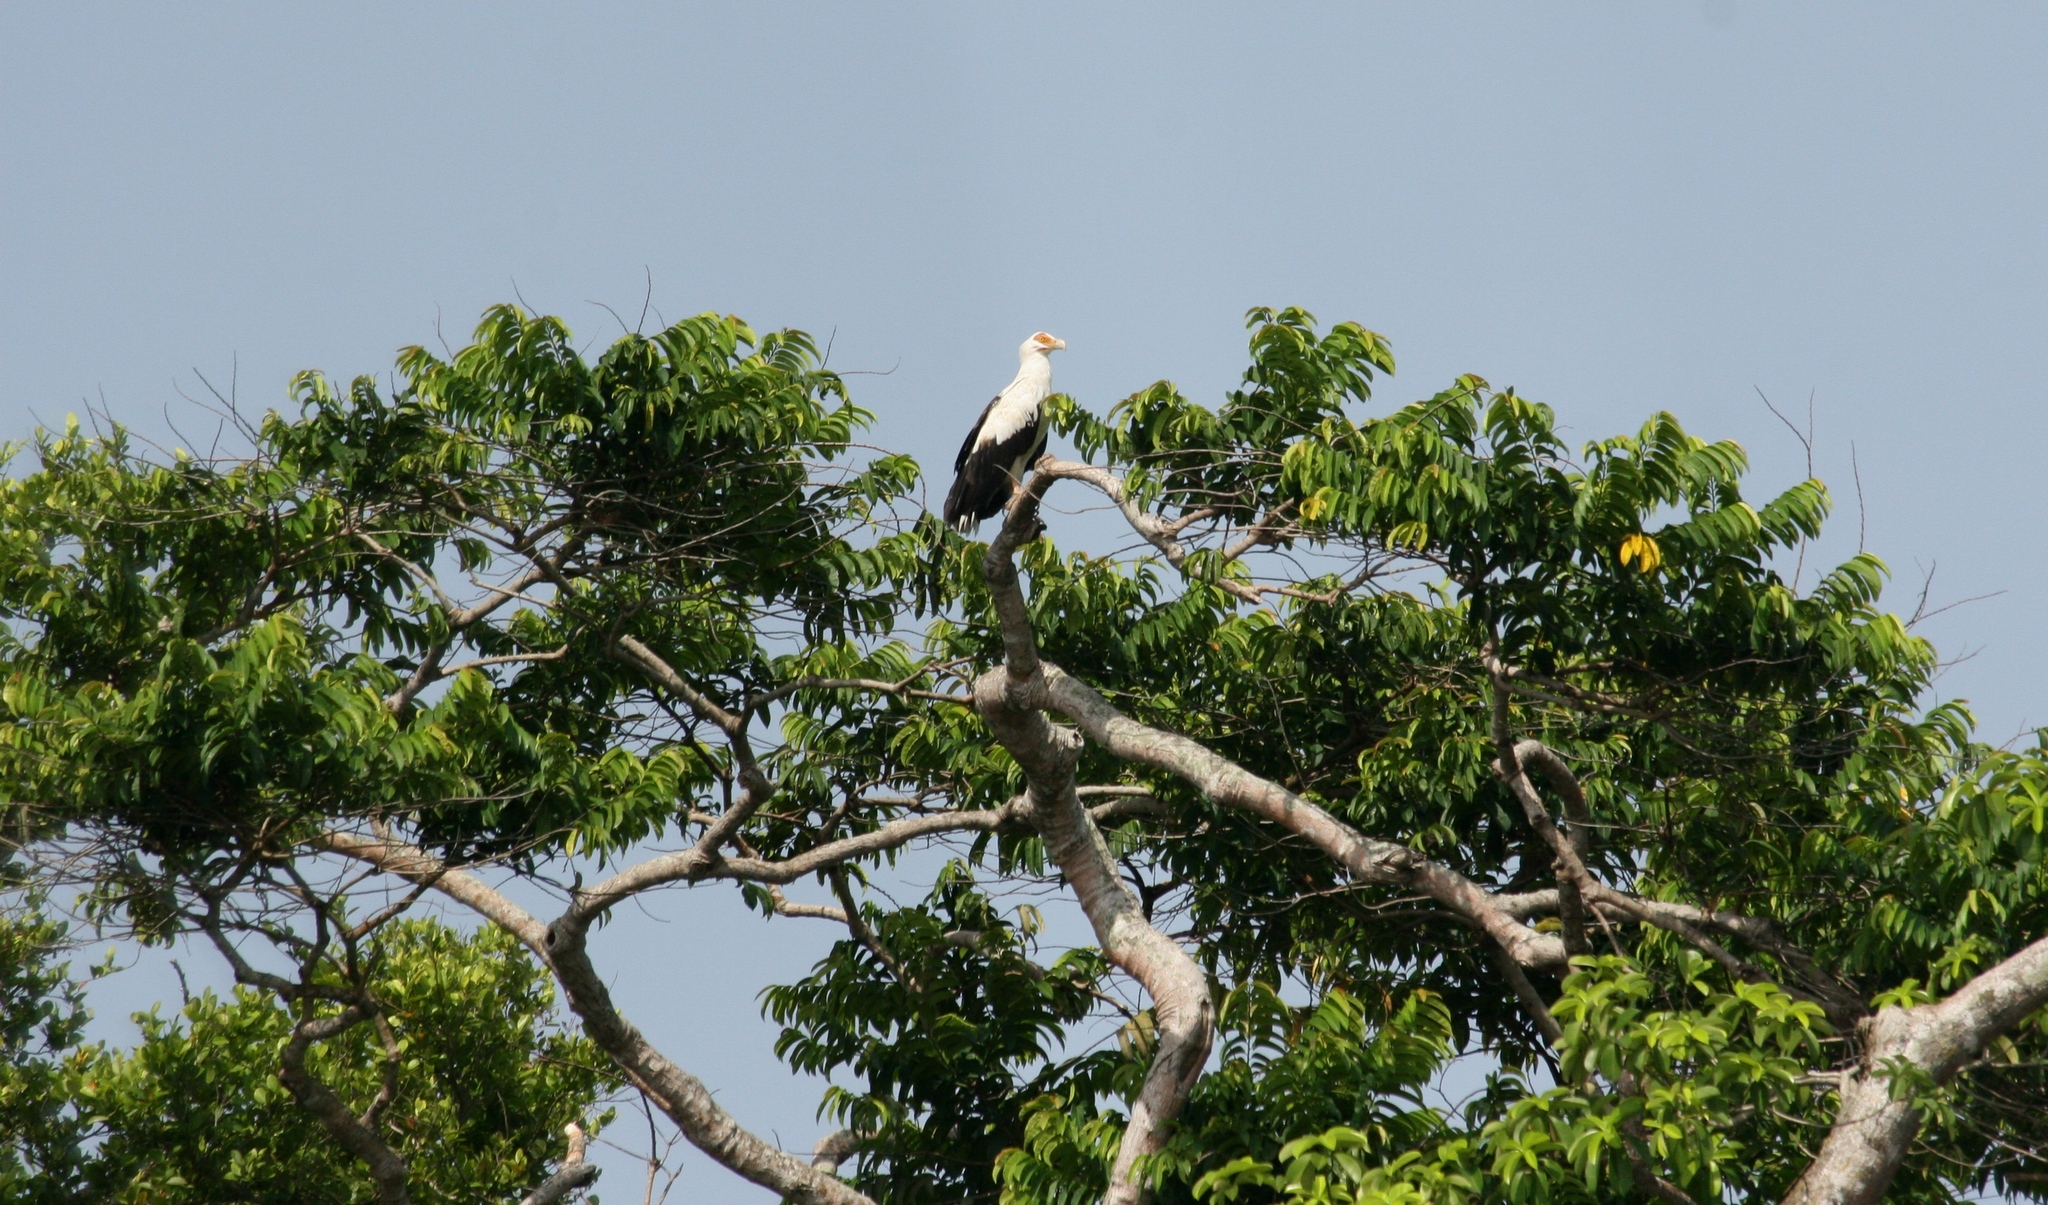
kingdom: Animalia
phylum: Chordata
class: Aves
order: Accipitriformes
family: Accipitridae
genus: Gypohierax
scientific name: Gypohierax angolensis
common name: Palm-nut vulture
